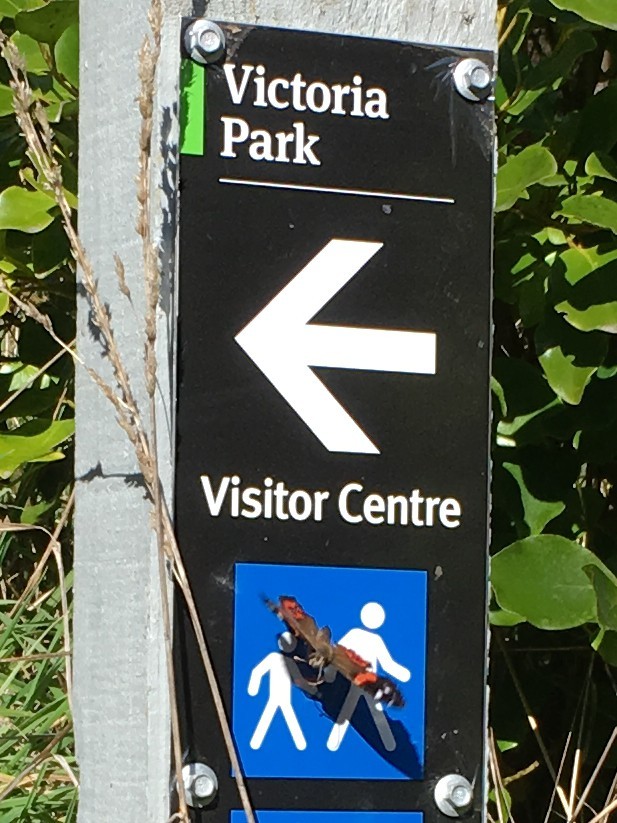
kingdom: Animalia
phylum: Arthropoda
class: Insecta
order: Lepidoptera
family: Nymphalidae
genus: Vanessa
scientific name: Vanessa gonerilla
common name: New zealand red admiral
